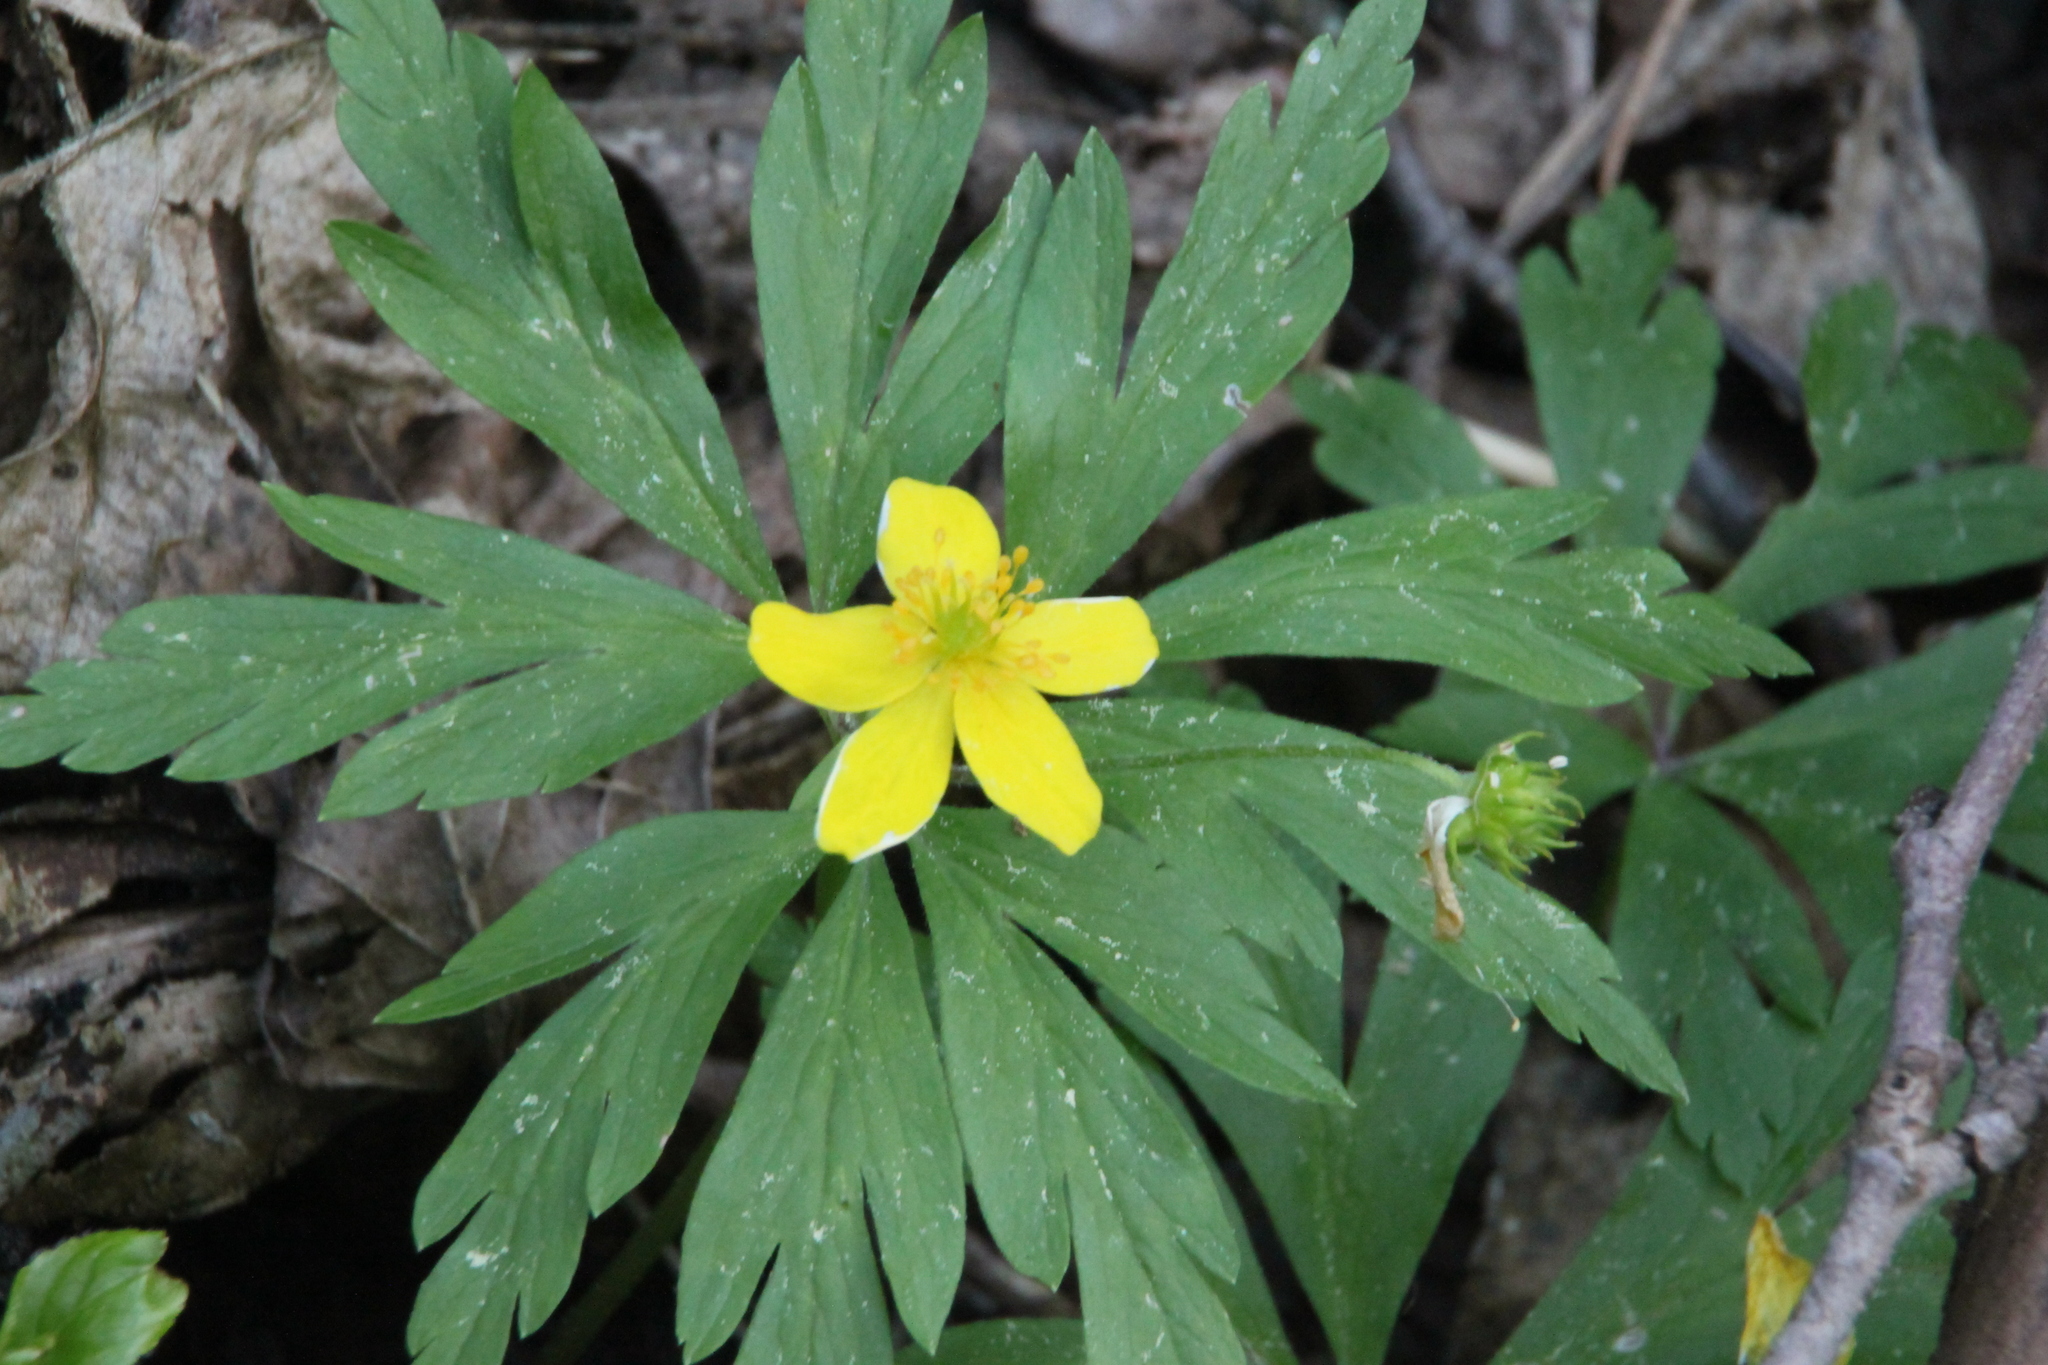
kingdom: Plantae
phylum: Tracheophyta
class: Magnoliopsida
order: Ranunculales
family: Ranunculaceae
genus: Anemone
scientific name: Anemone ranunculoides
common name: Yellow anemone
